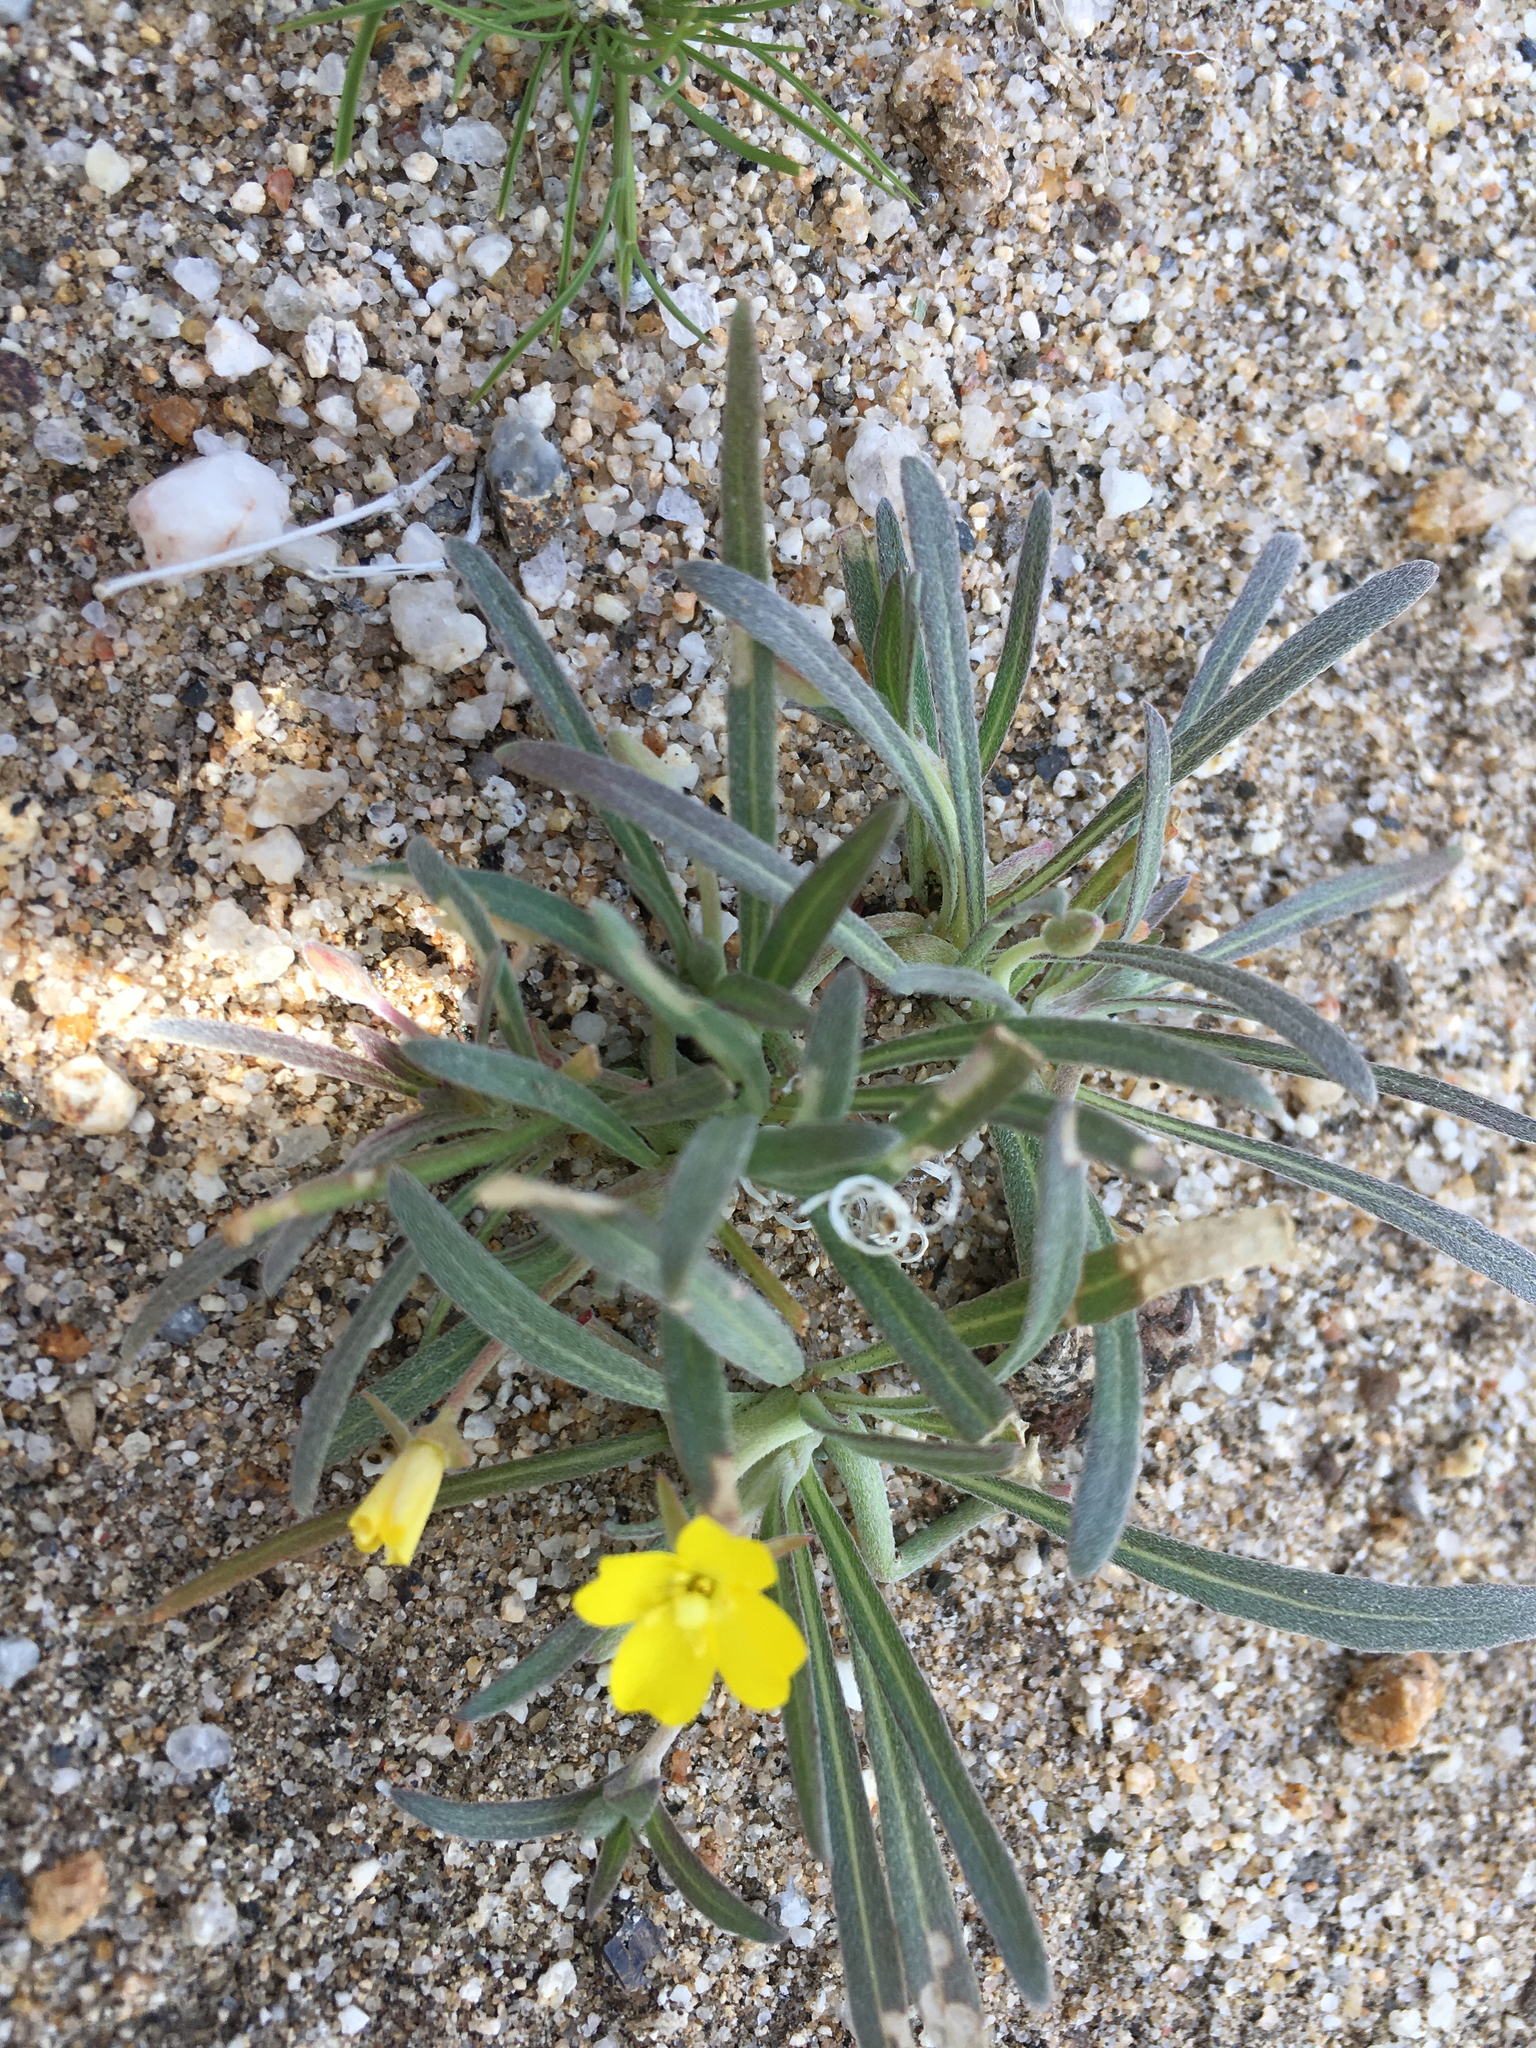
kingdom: Plantae
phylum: Tracheophyta
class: Magnoliopsida
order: Myrtales
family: Onagraceae
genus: Camissoniopsis
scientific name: Camissoniopsis pallida
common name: Paleyellow suncup
